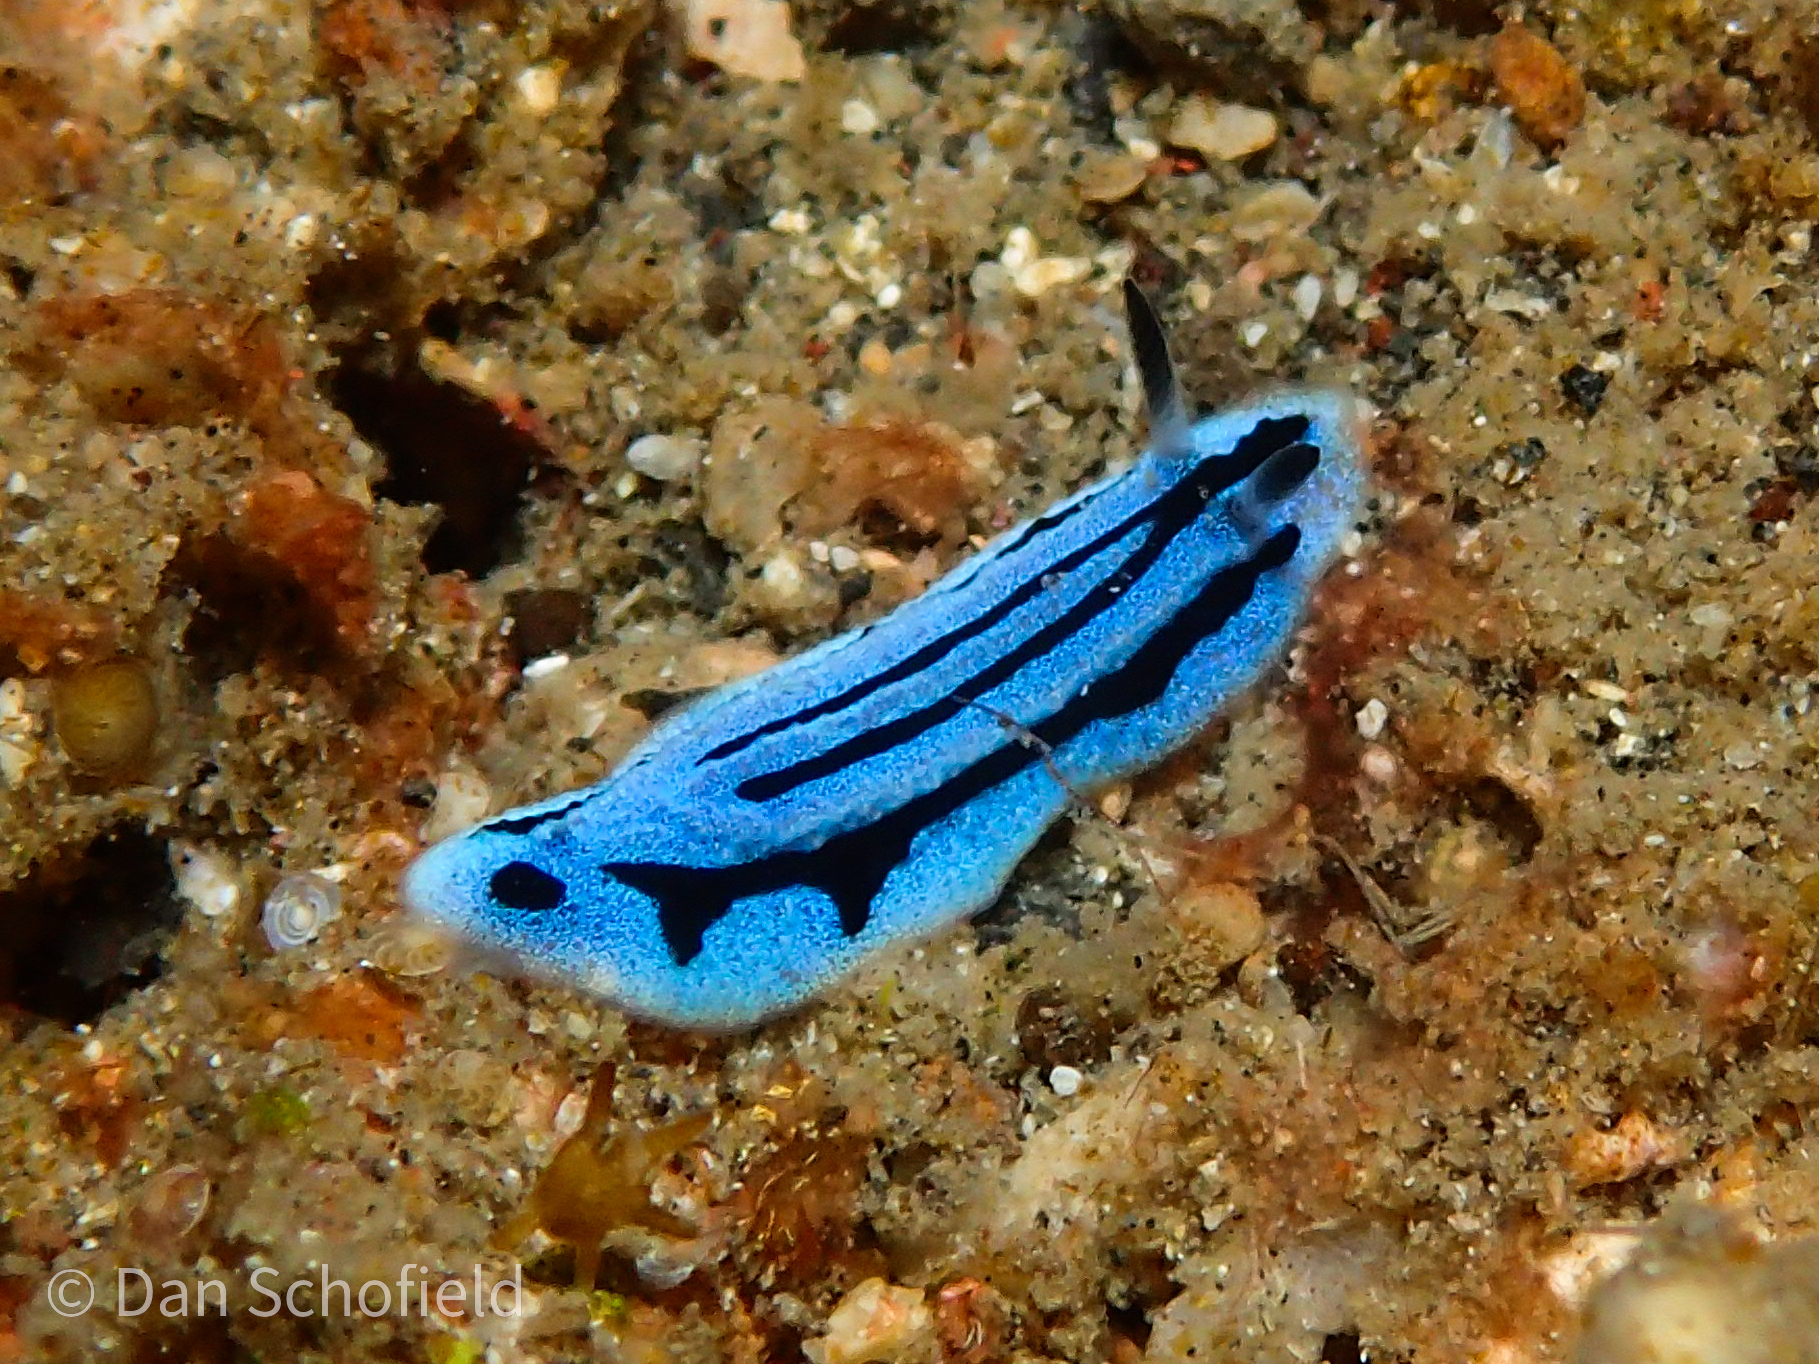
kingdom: Animalia
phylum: Mollusca
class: Gastropoda
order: Nudibranchia
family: Phyllidiidae
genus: Phyllidiopsis
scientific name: Phyllidiopsis annae
